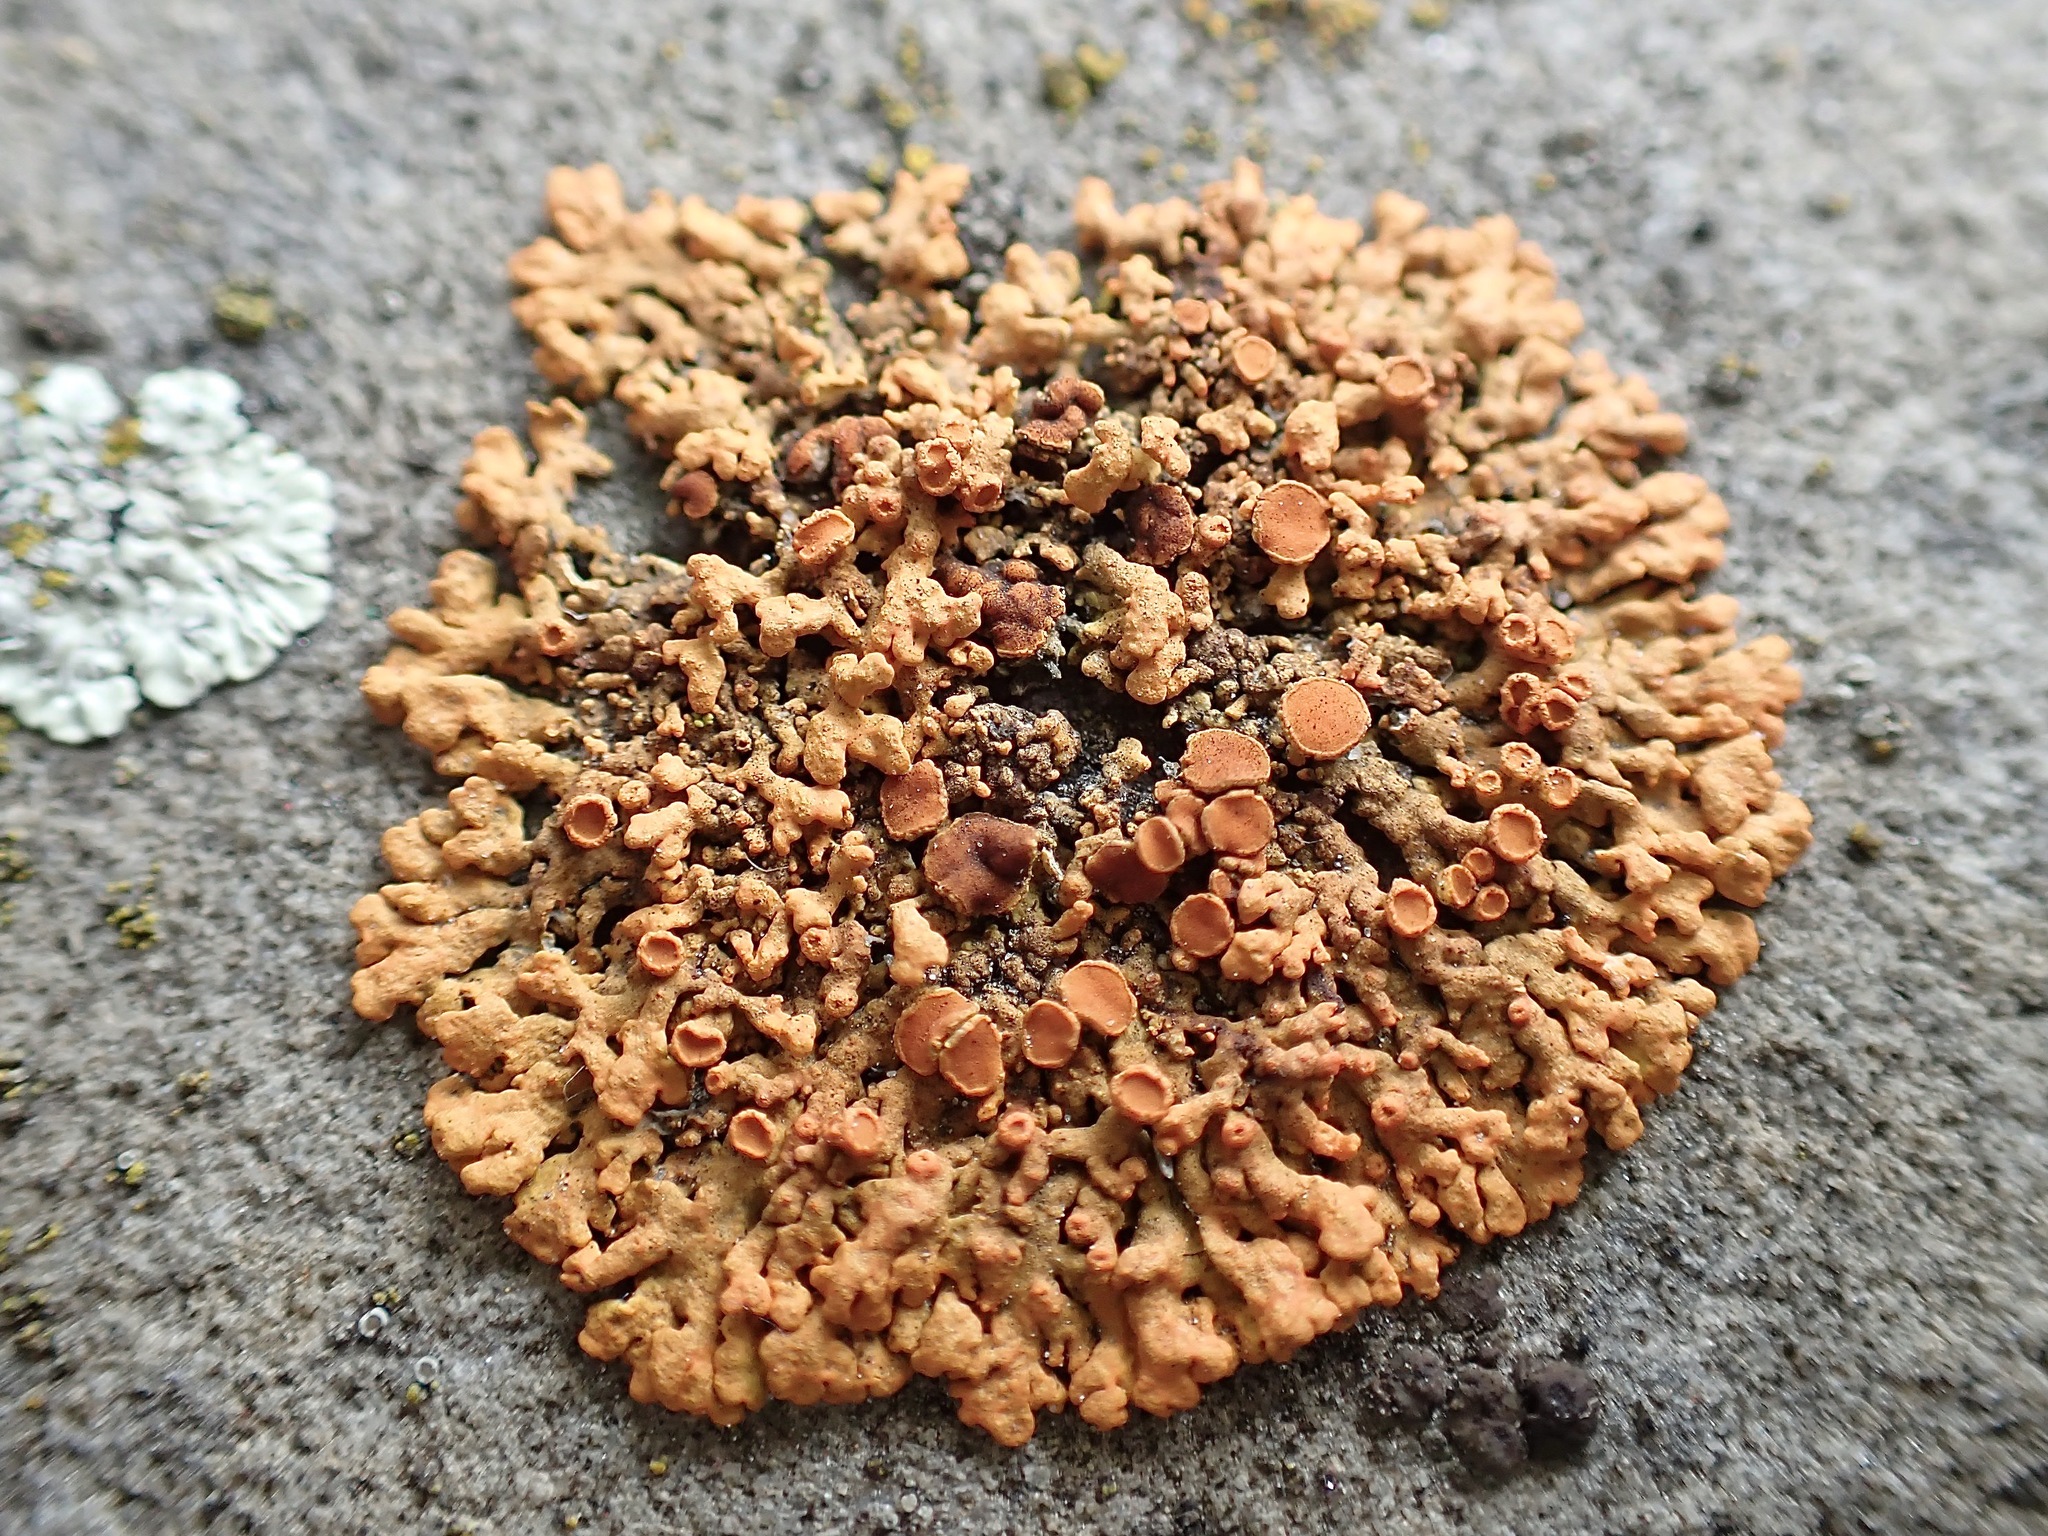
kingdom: Fungi
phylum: Ascomycota
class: Lecanoromycetes
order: Teloschistales
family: Teloschistaceae
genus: Xanthoria
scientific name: Xanthoria elegans
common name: Elegant sunburst lichen
